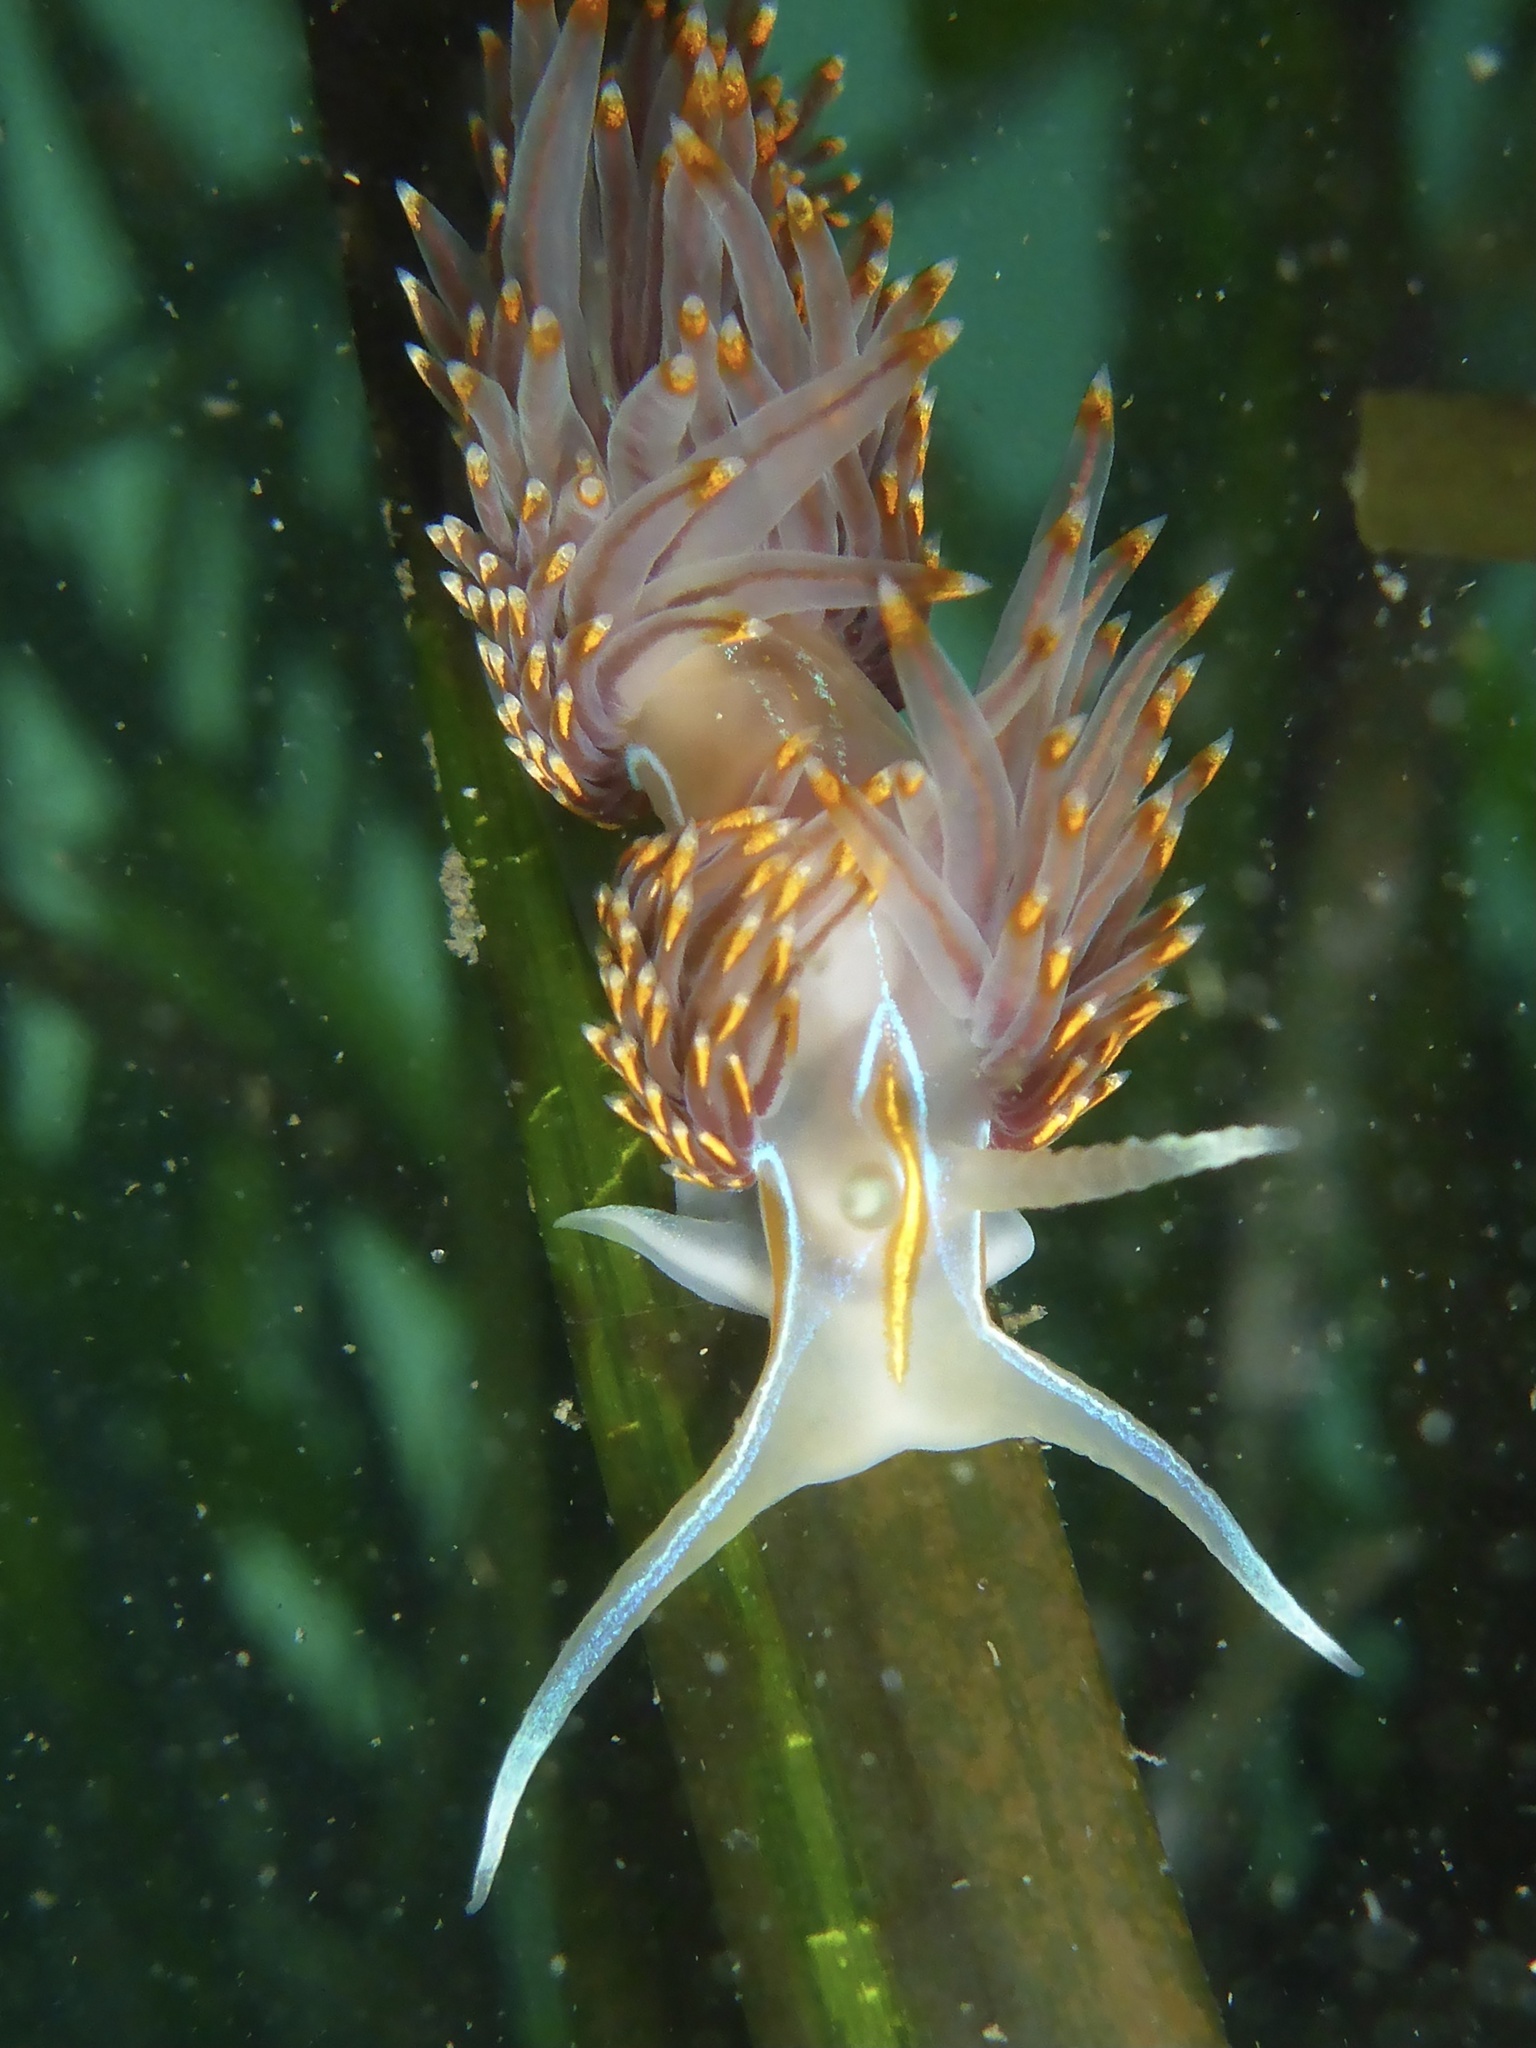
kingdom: Animalia
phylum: Mollusca
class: Gastropoda
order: Nudibranchia
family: Myrrhinidae
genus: Hermissenda
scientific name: Hermissenda opalescens
